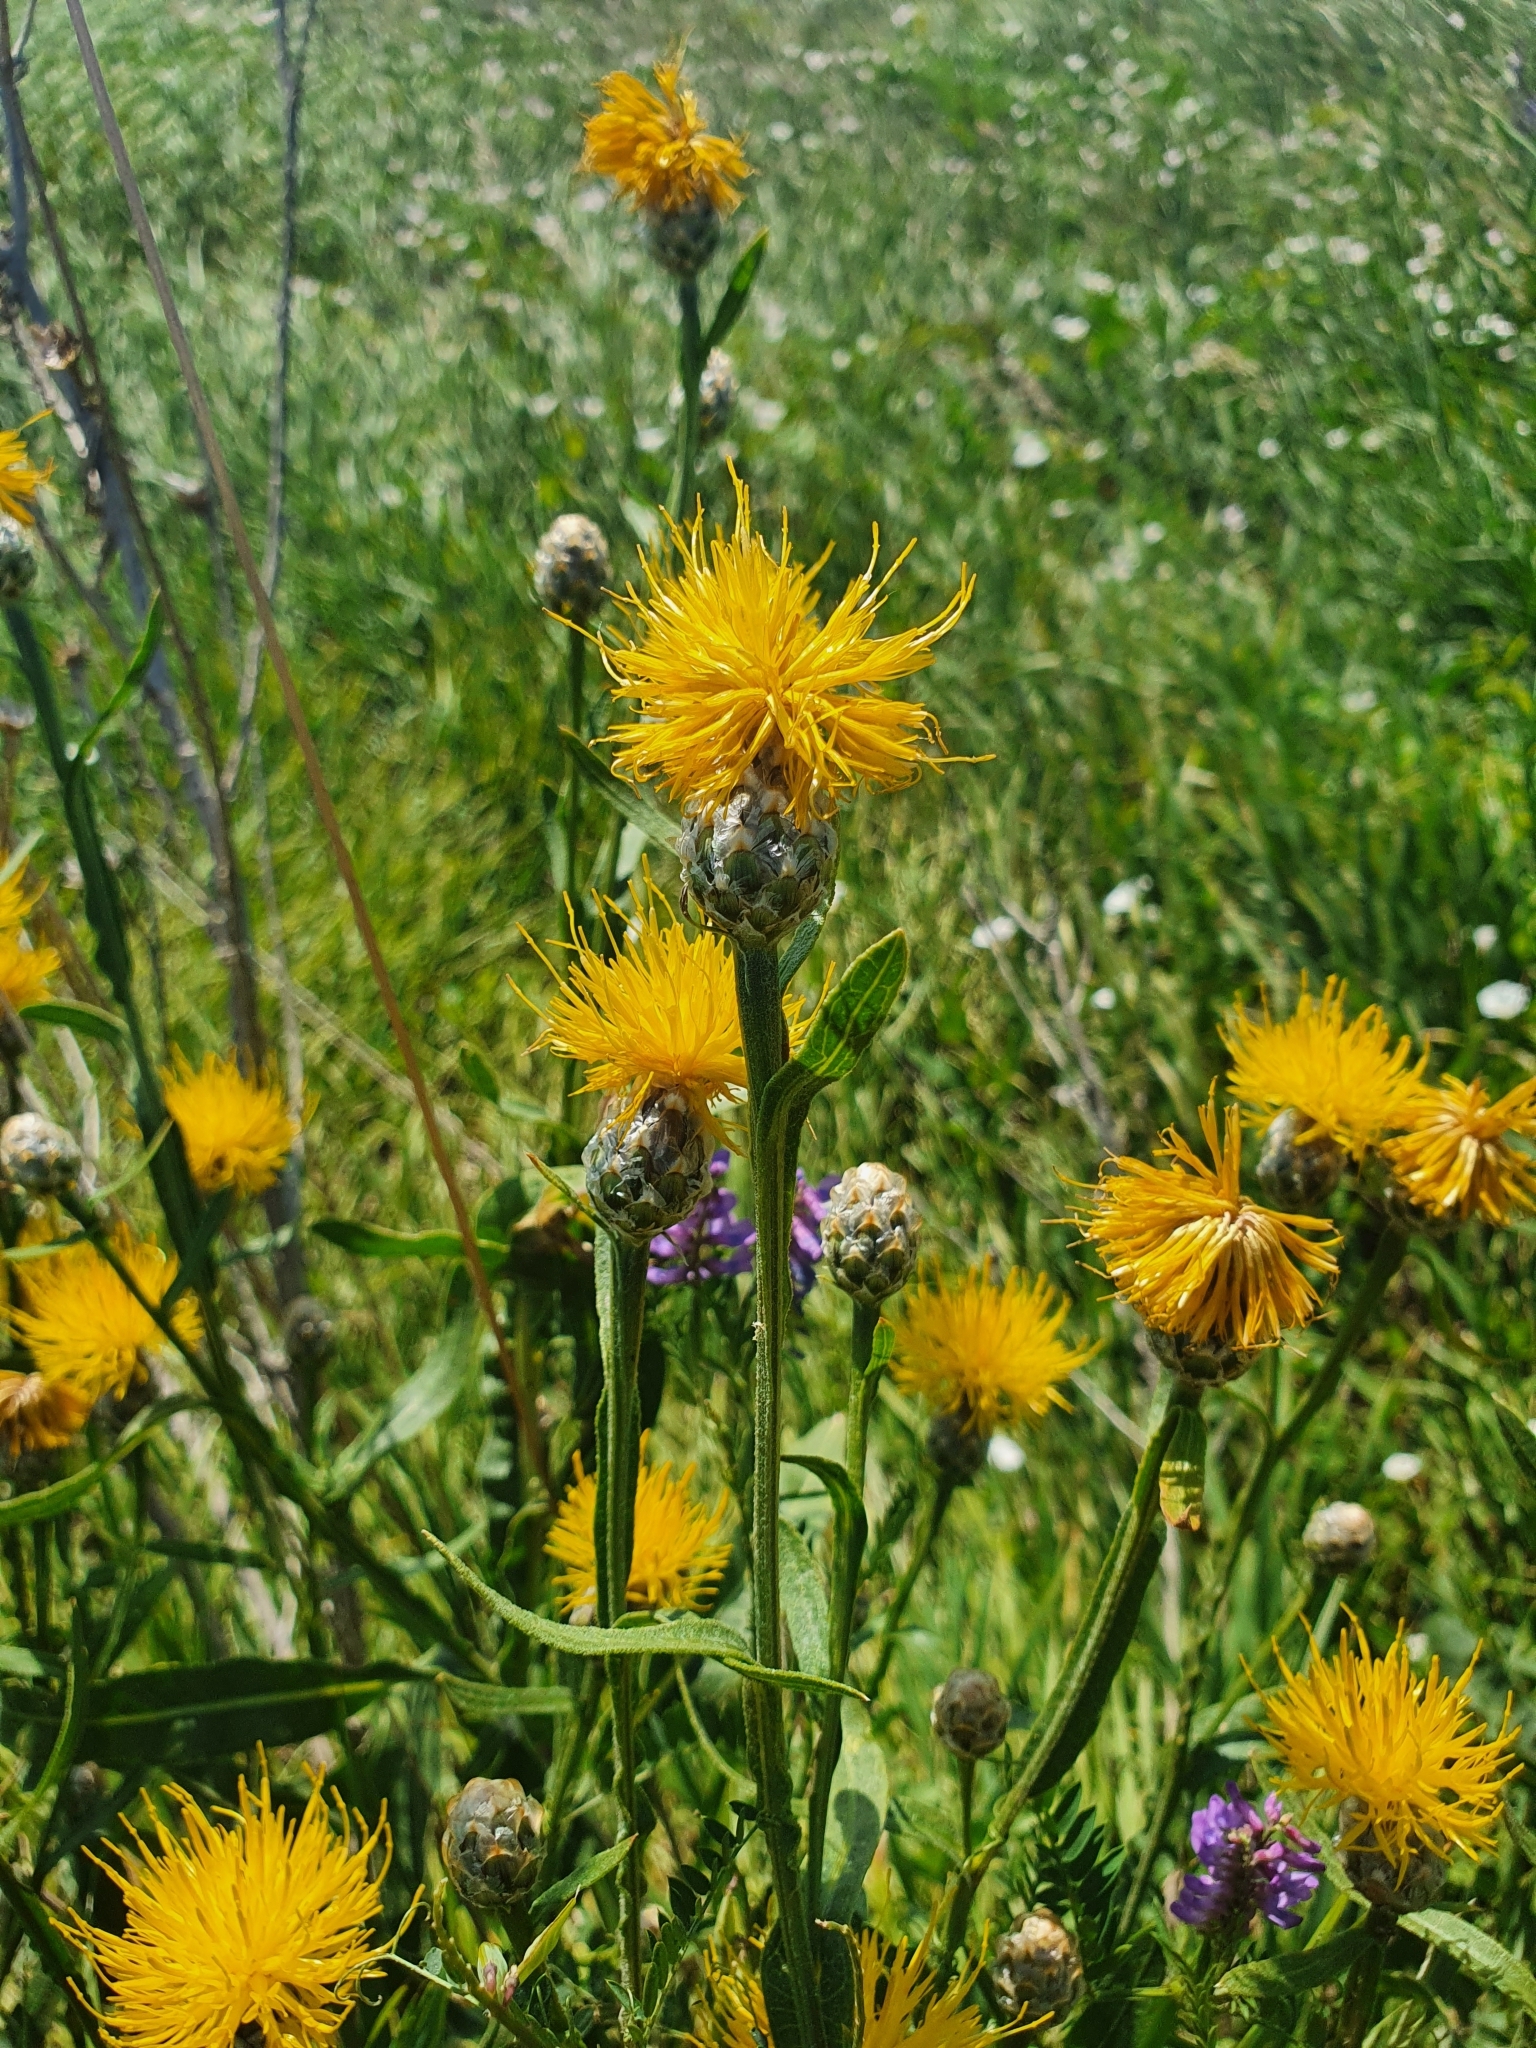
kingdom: Plantae
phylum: Tracheophyta
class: Magnoliopsida
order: Asterales
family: Asteraceae
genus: Centaurea
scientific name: Centaurea glastifolia
